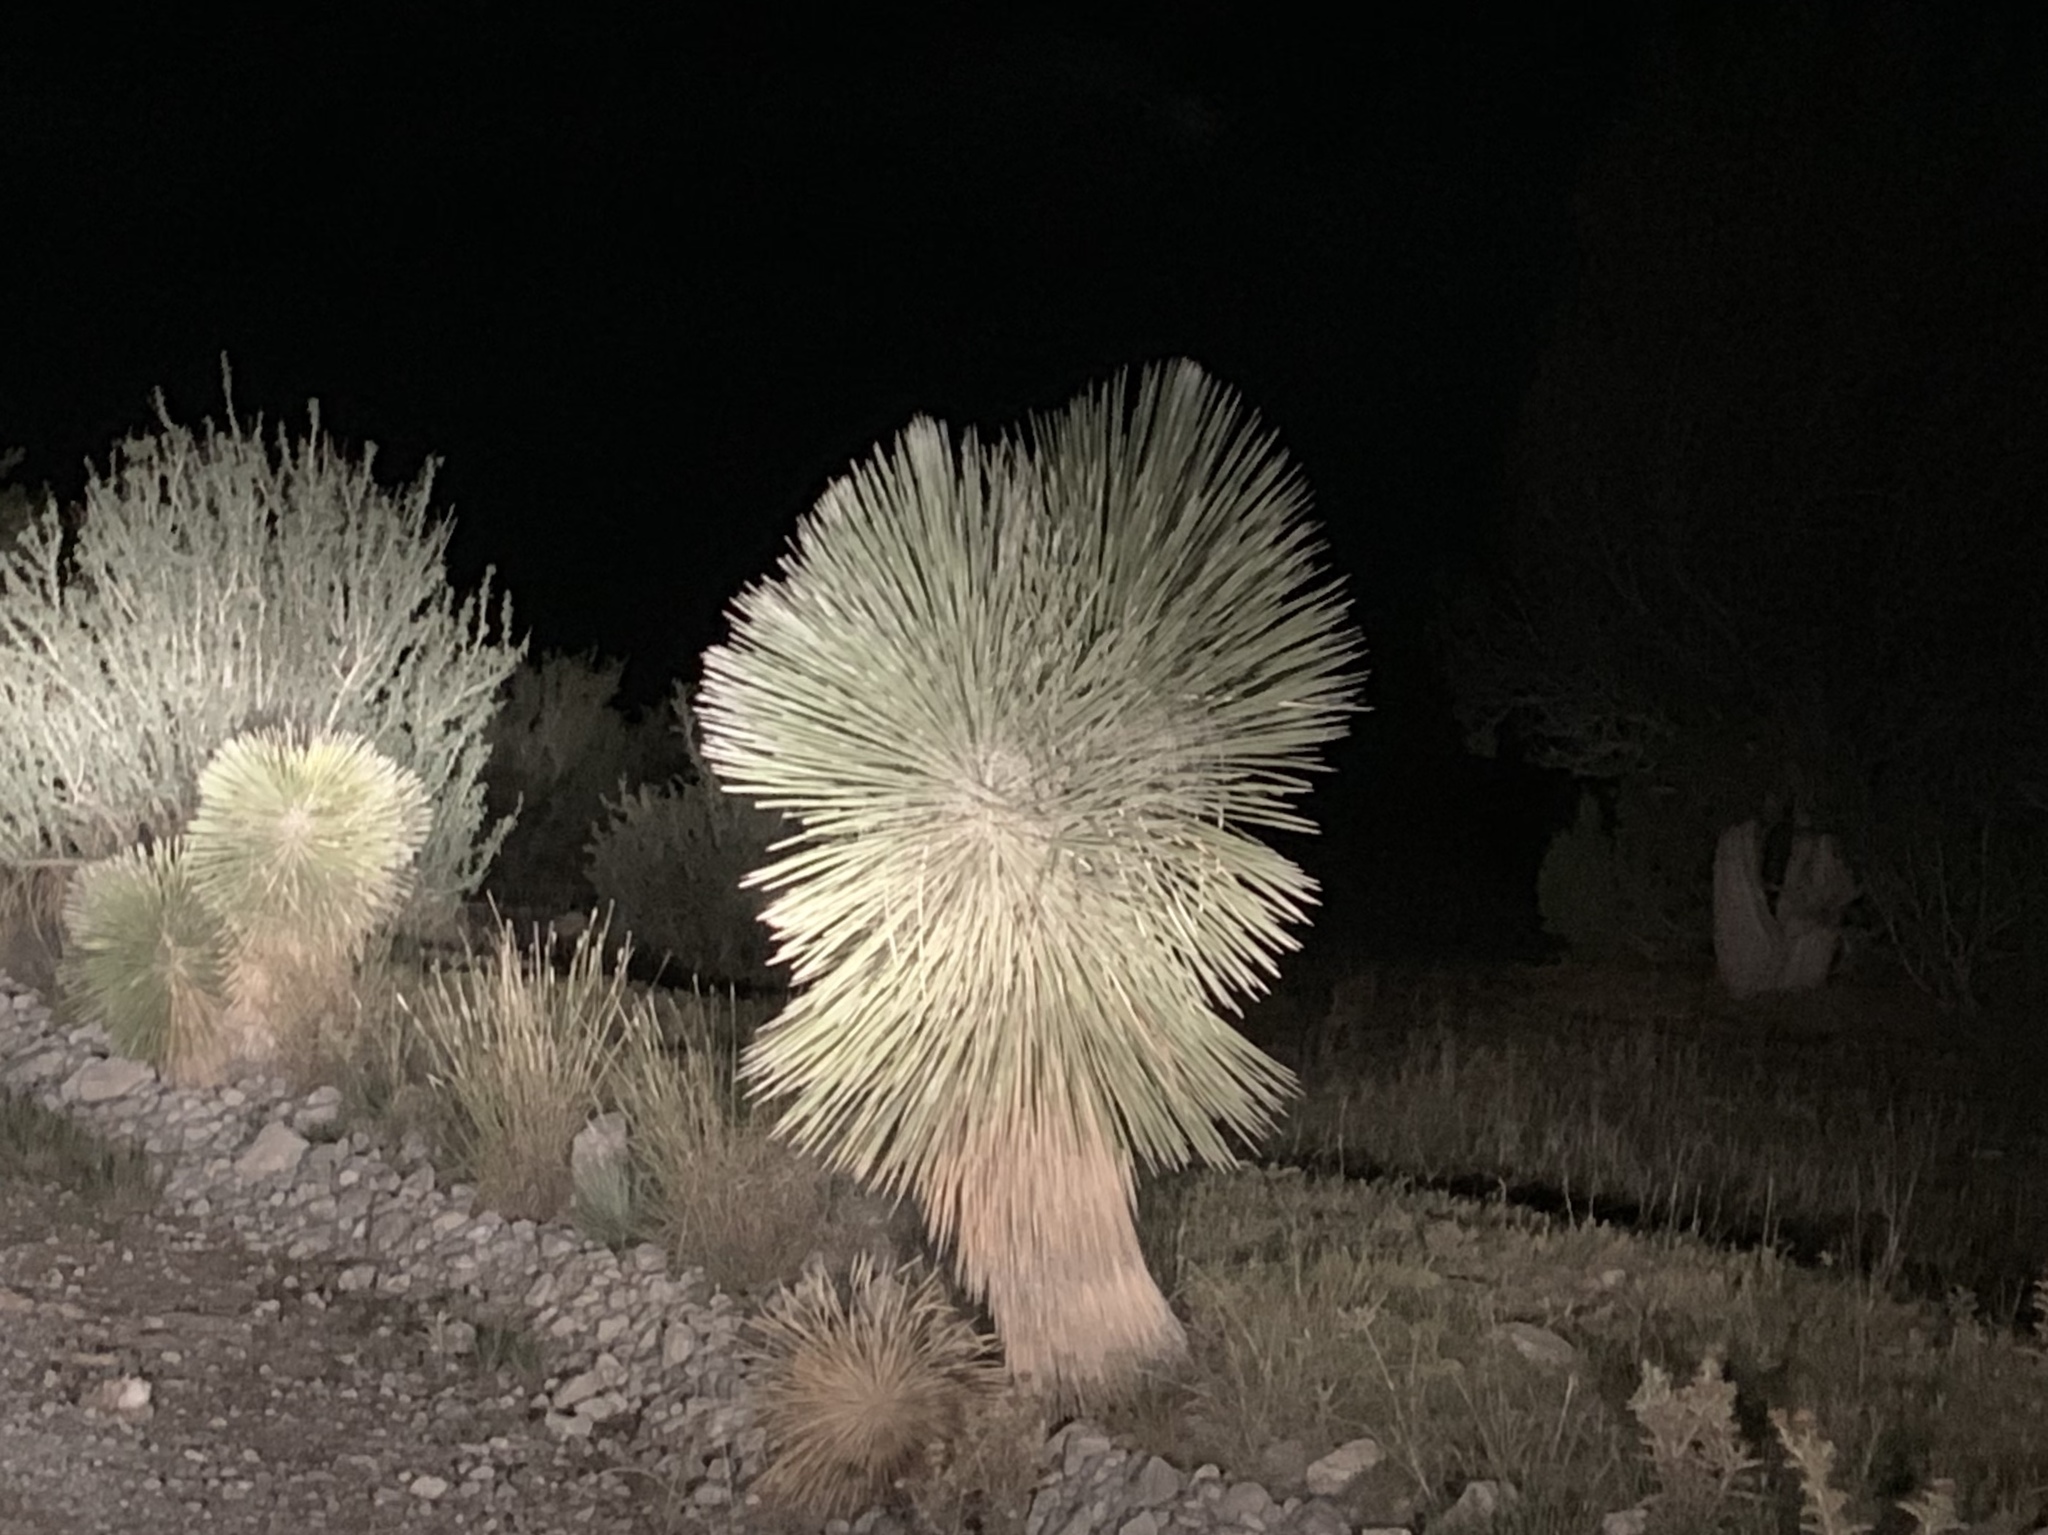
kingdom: Plantae
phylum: Tracheophyta
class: Liliopsida
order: Asparagales
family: Asparagaceae
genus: Yucca
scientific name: Yucca elata
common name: Palmella
